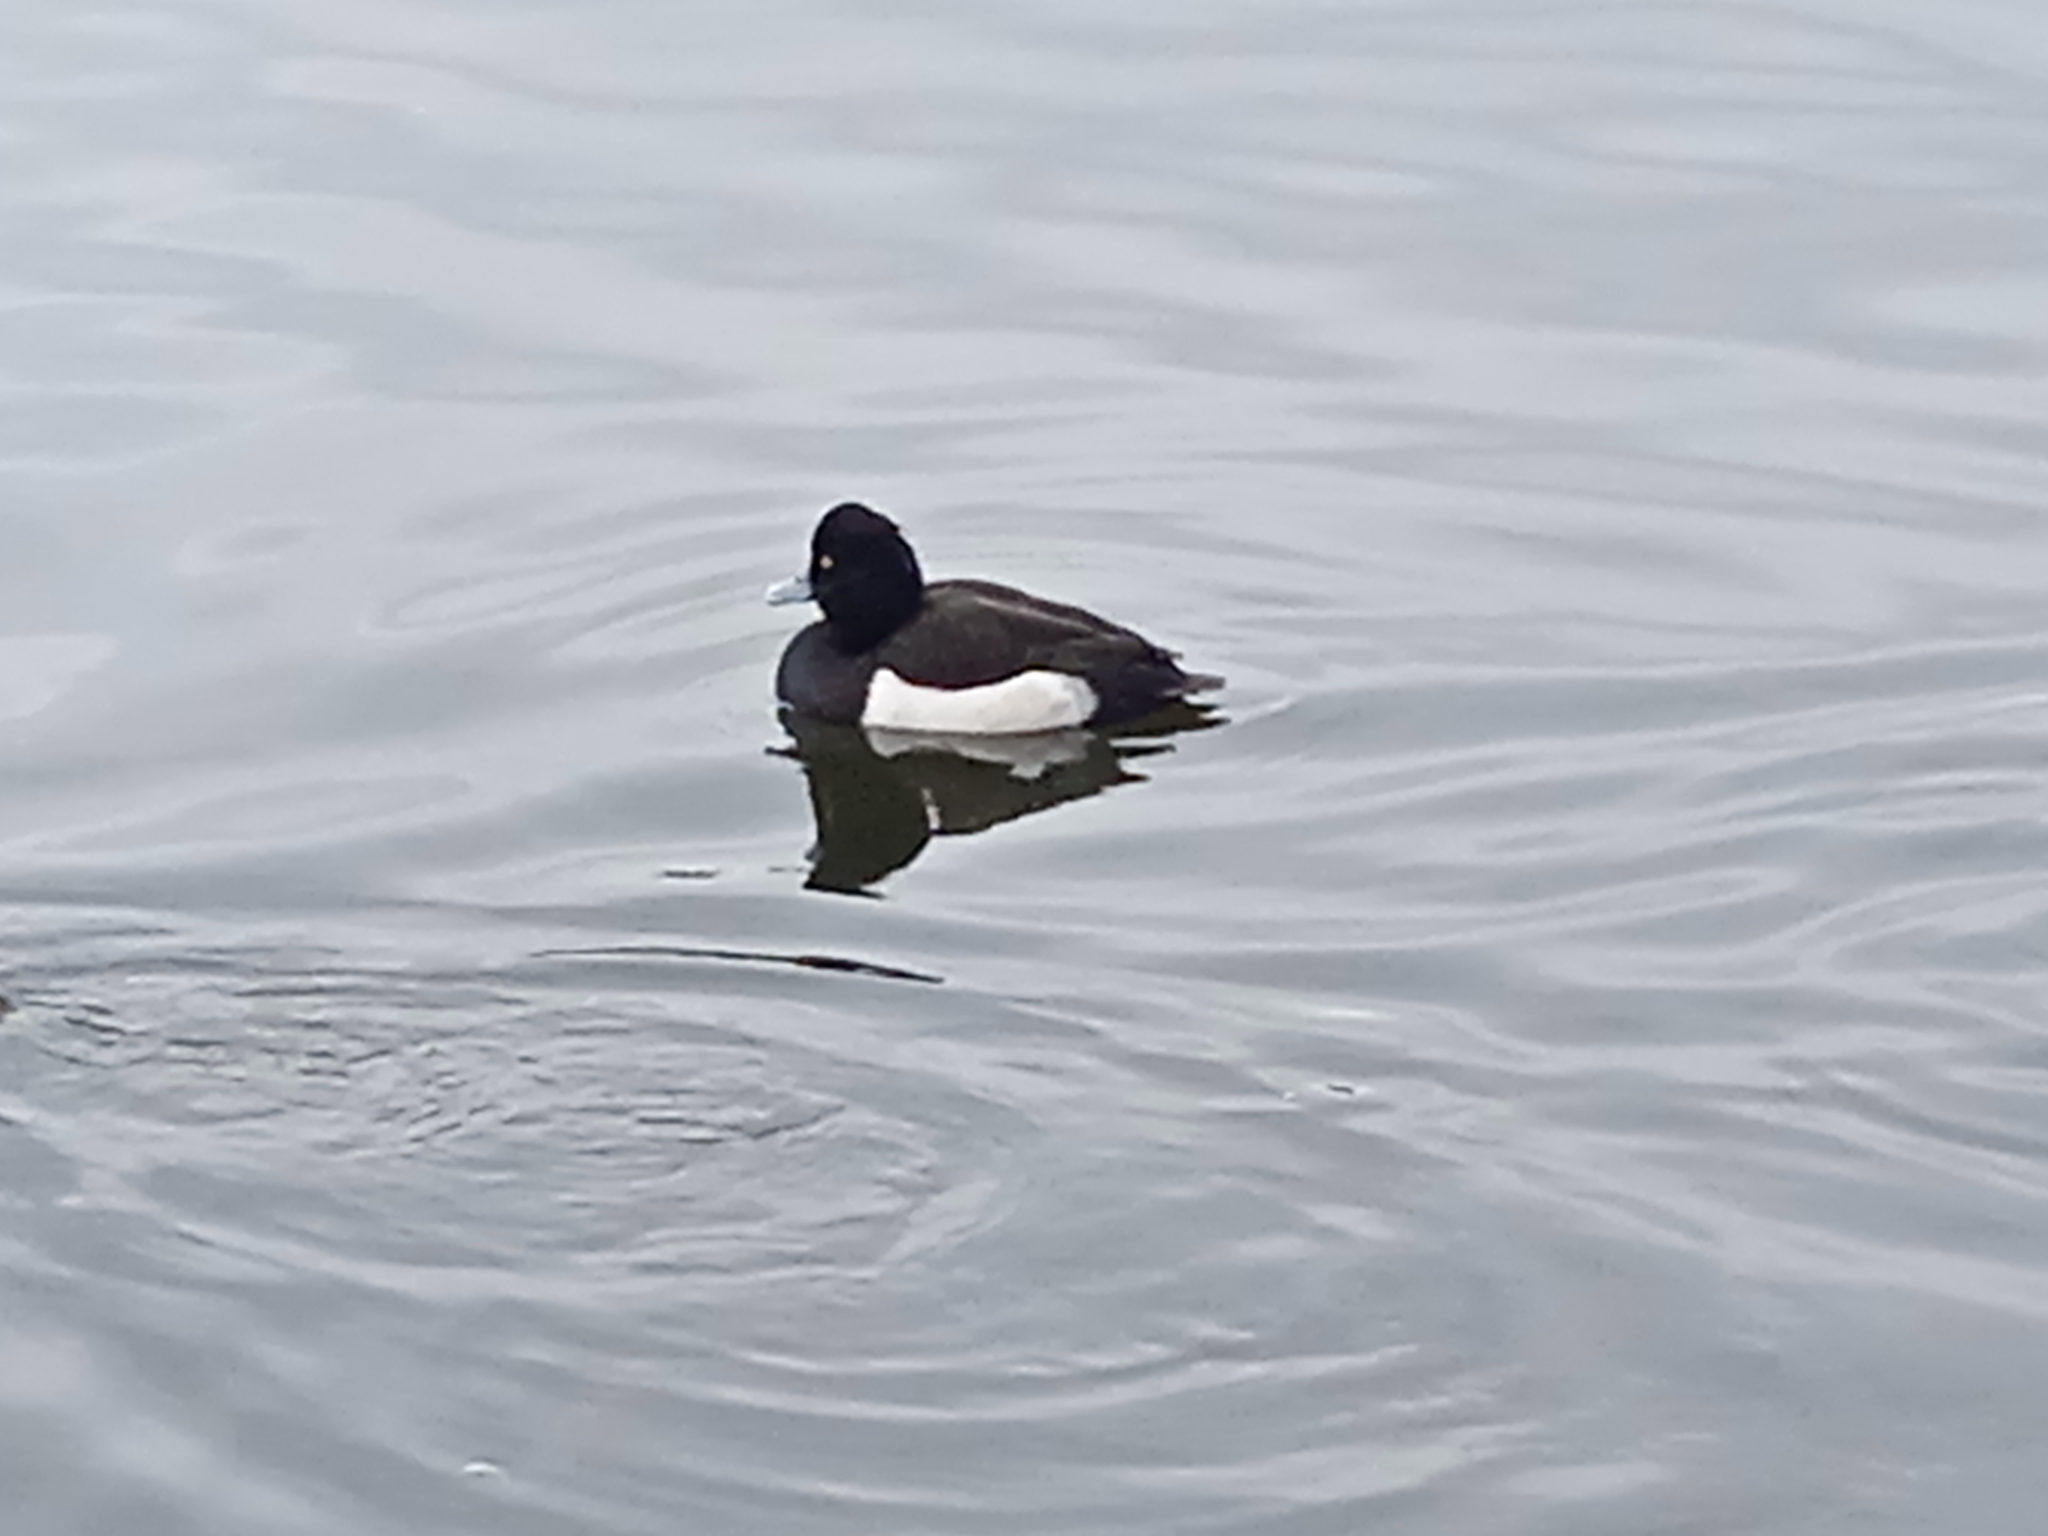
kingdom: Animalia
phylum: Chordata
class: Aves
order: Anseriformes
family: Anatidae
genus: Aythya
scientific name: Aythya fuligula
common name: Tufted duck
